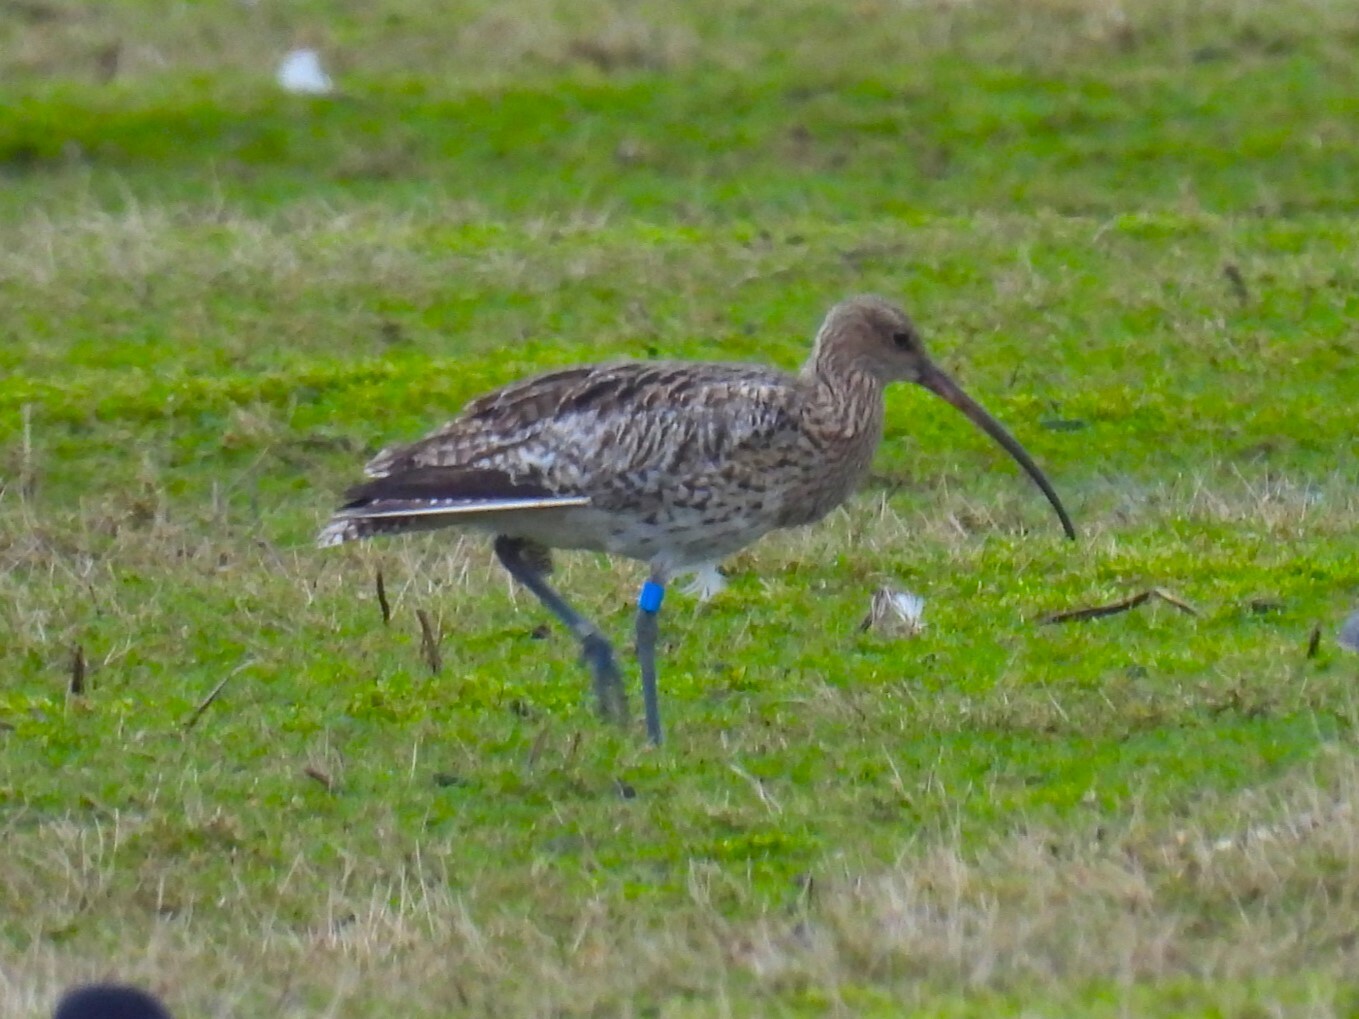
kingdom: Animalia
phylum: Chordata
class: Aves
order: Charadriiformes
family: Scolopacidae
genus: Numenius
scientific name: Numenius arquata
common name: Eurasian curlew
